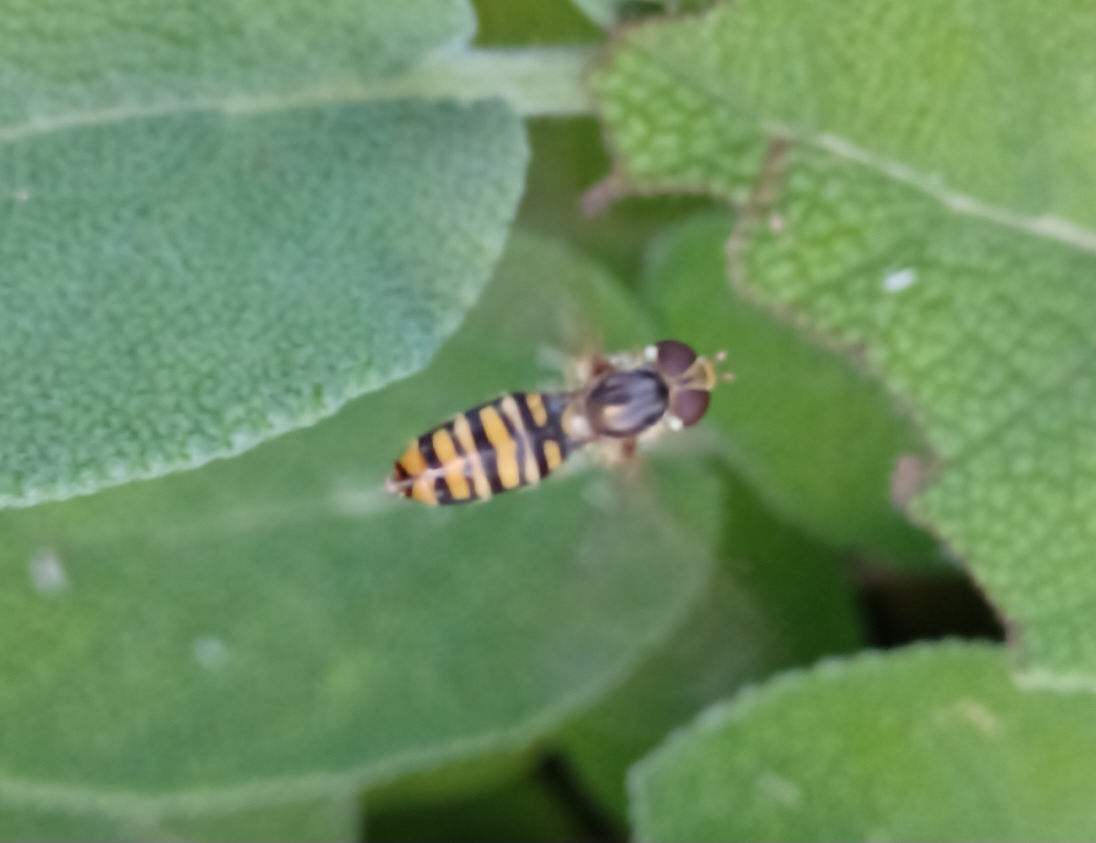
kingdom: Animalia
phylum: Arthropoda
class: Insecta
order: Diptera
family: Syrphidae
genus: Episyrphus
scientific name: Episyrphus balteatus
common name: Marmalade hoverfly
